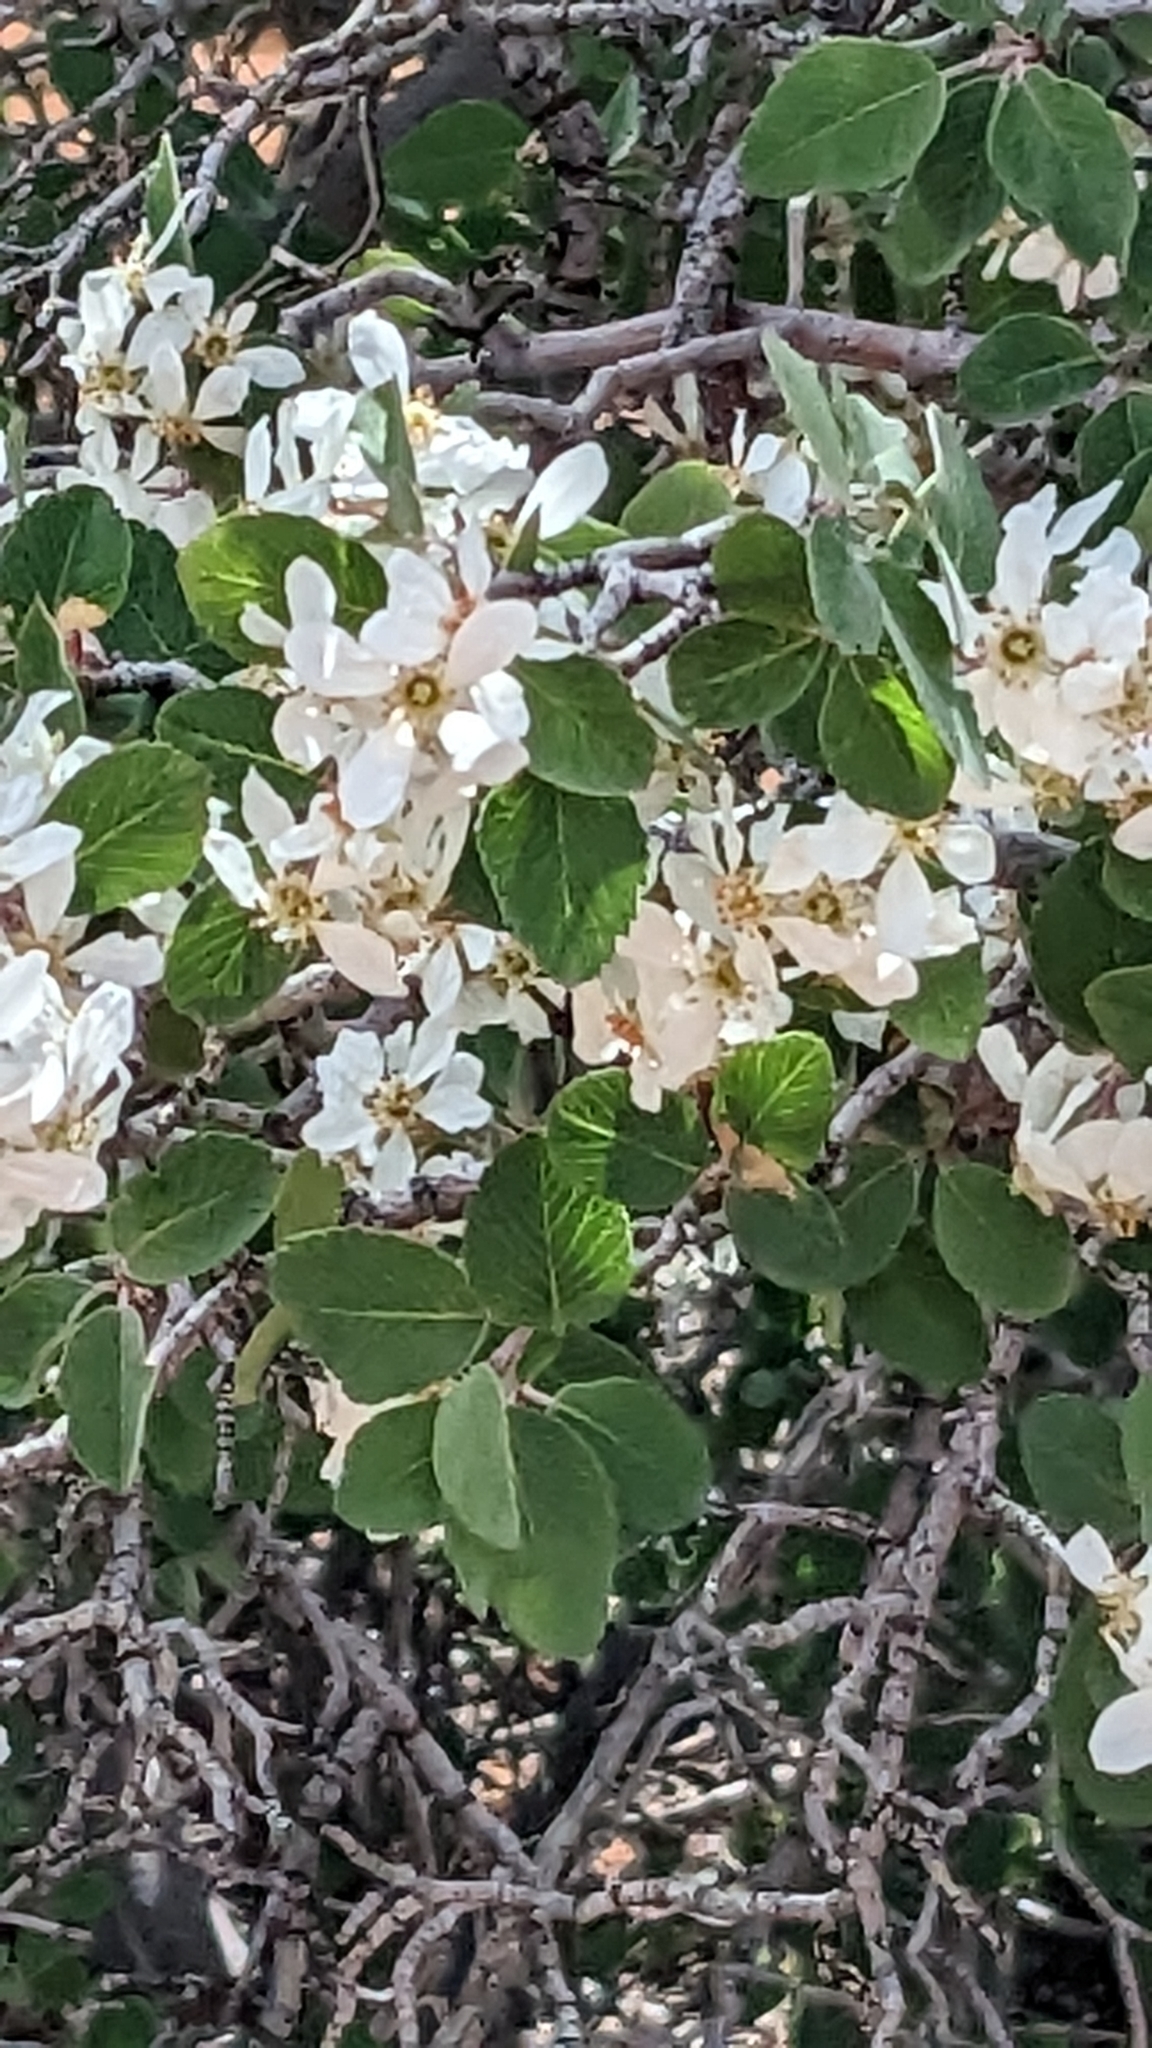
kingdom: Plantae
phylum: Tracheophyta
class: Magnoliopsida
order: Rosales
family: Rosaceae
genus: Amelanchier
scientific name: Amelanchier utahensis
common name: Utah serviceberry
